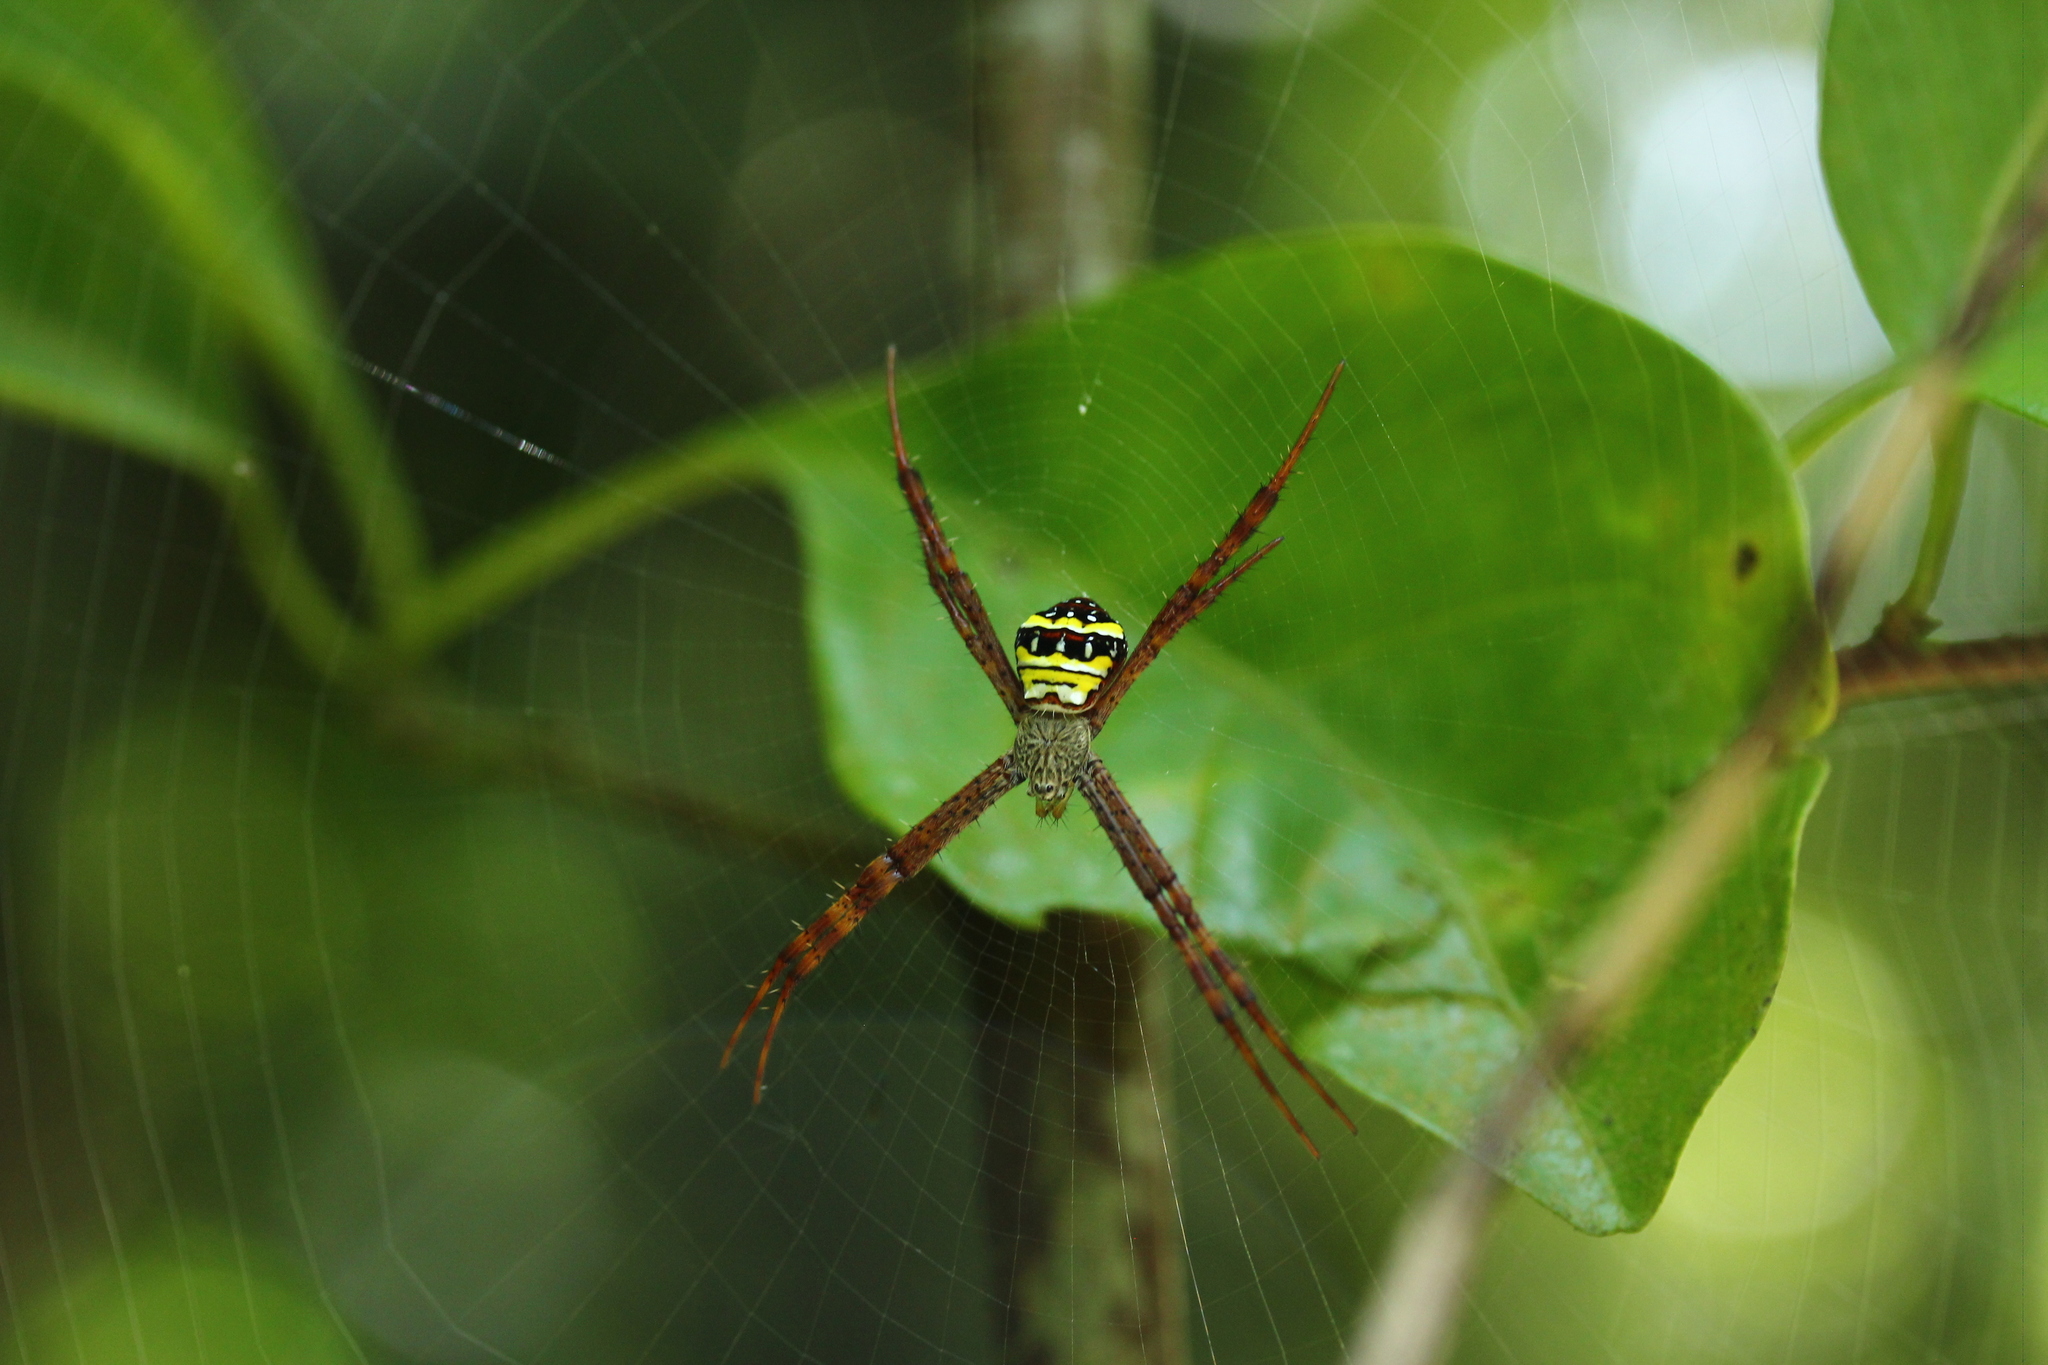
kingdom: Animalia
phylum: Arthropoda
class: Arachnida
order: Araneae
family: Araneidae
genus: Argiope
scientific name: Argiope aetheroides
